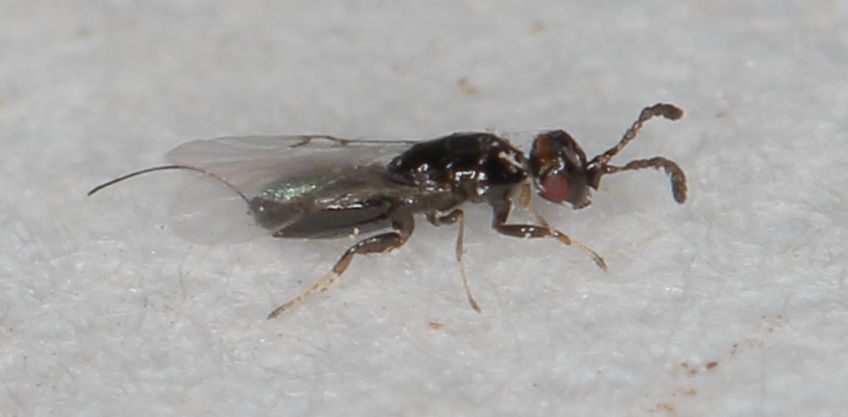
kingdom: Animalia
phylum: Arthropoda
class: Insecta
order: Hymenoptera
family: Agaonidae
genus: Platyscapa
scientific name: Platyscapa soraria
